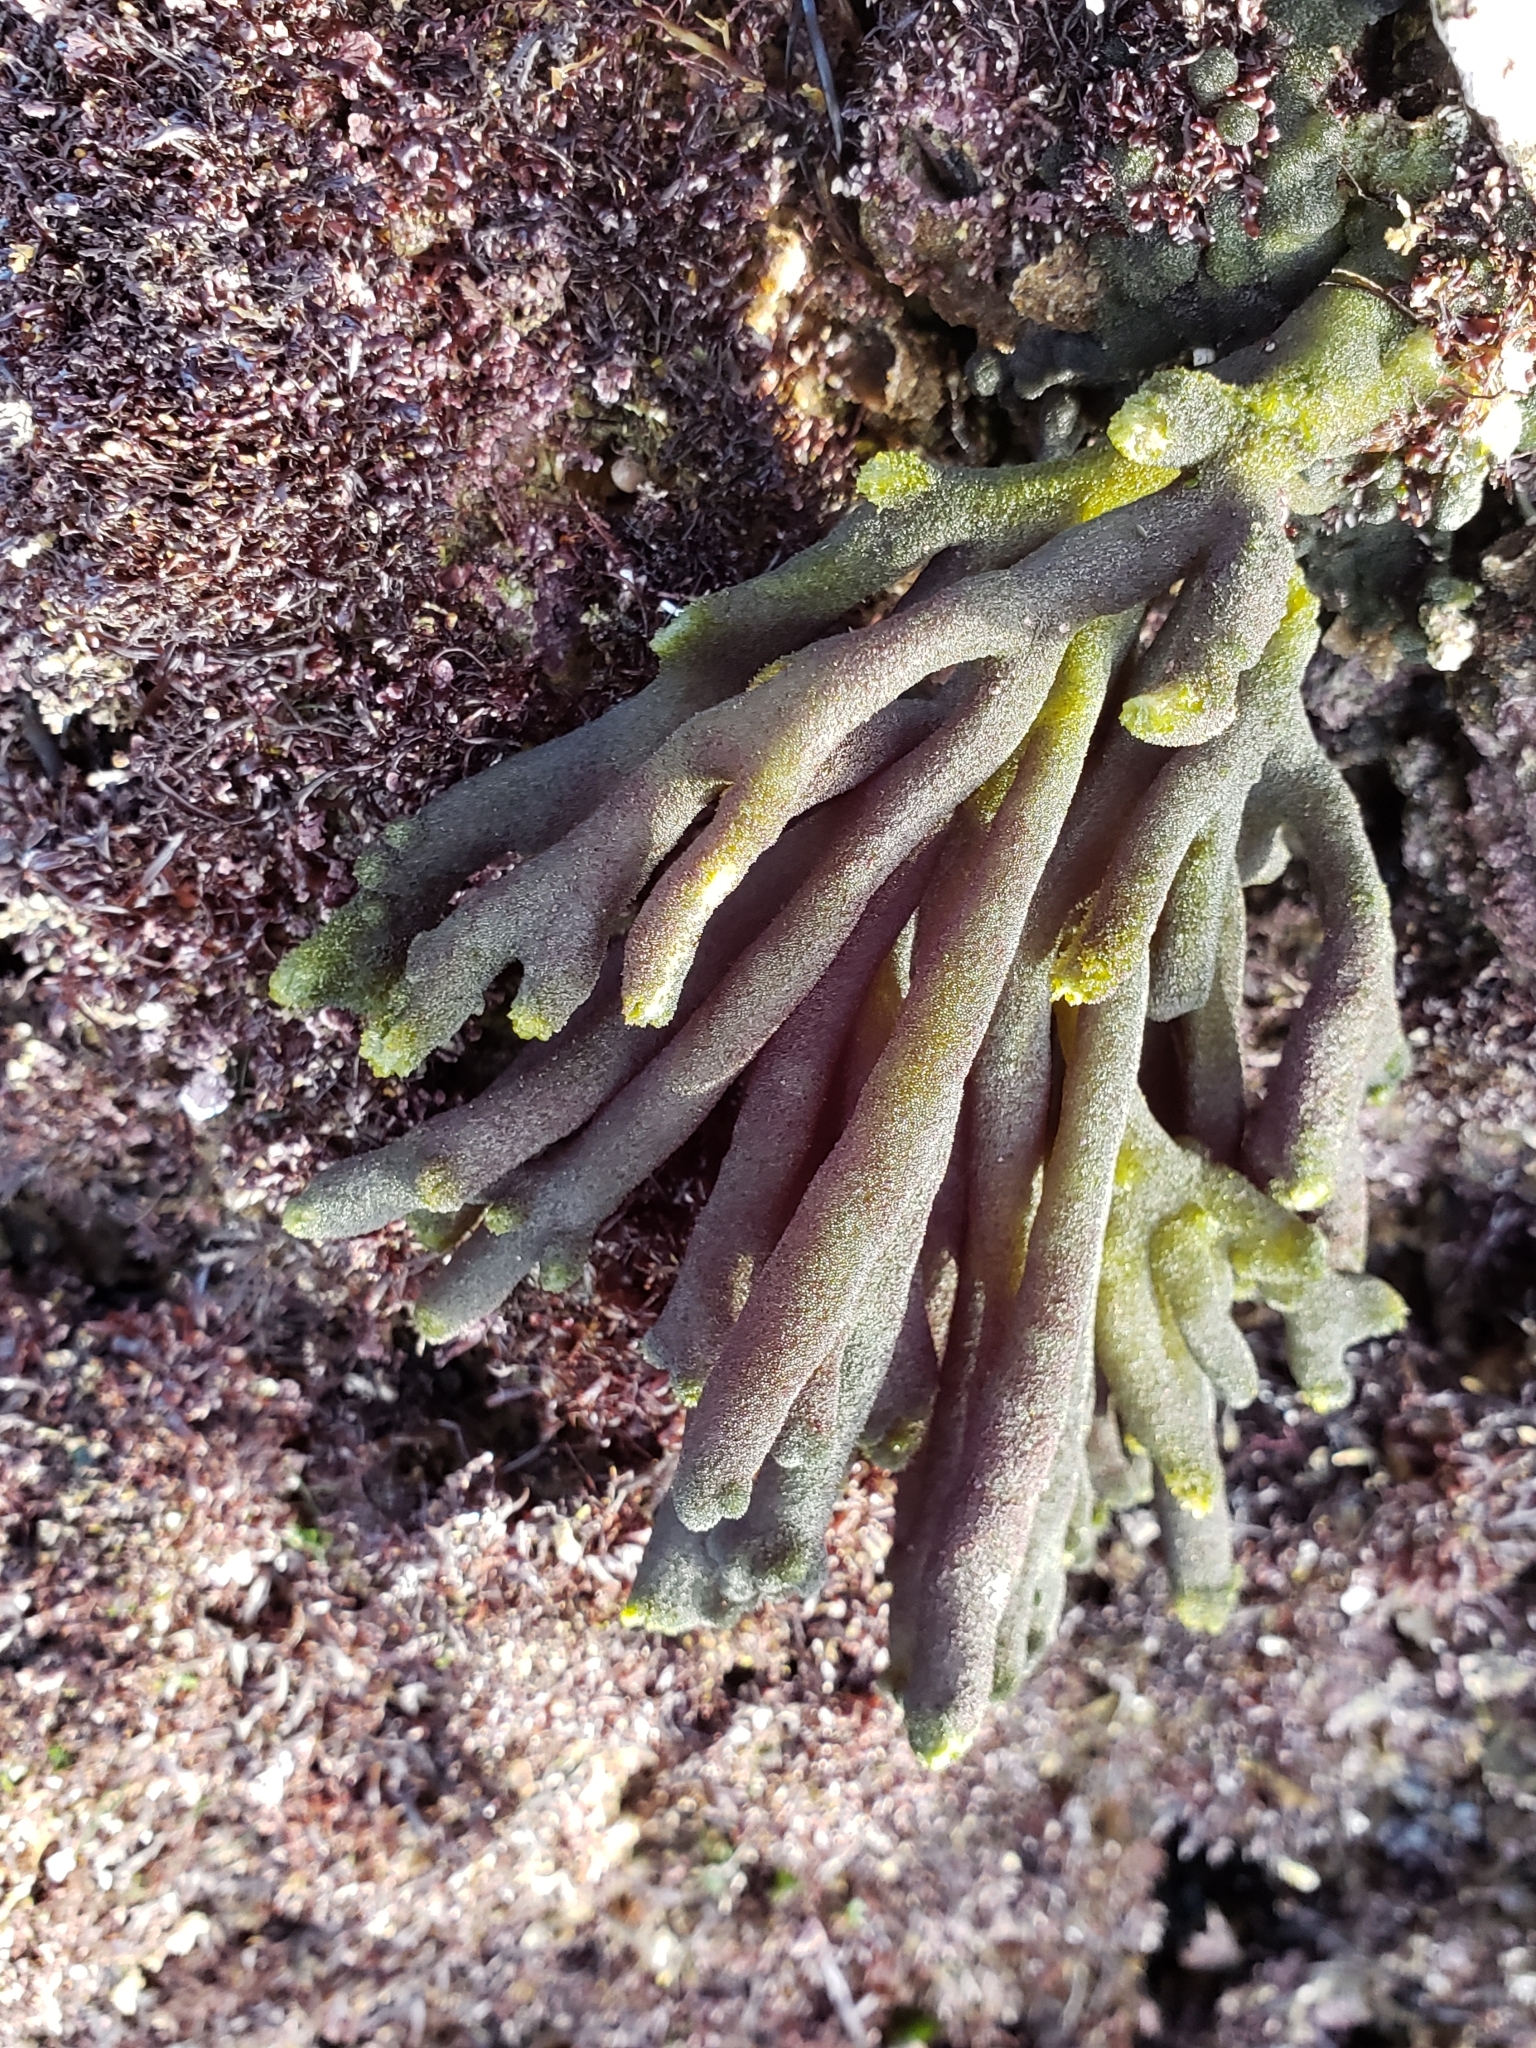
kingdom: Plantae
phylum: Chlorophyta
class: Ulvophyceae
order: Bryopsidales
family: Codiaceae
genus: Codium
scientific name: Codium fragile
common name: Dead man's fingers
